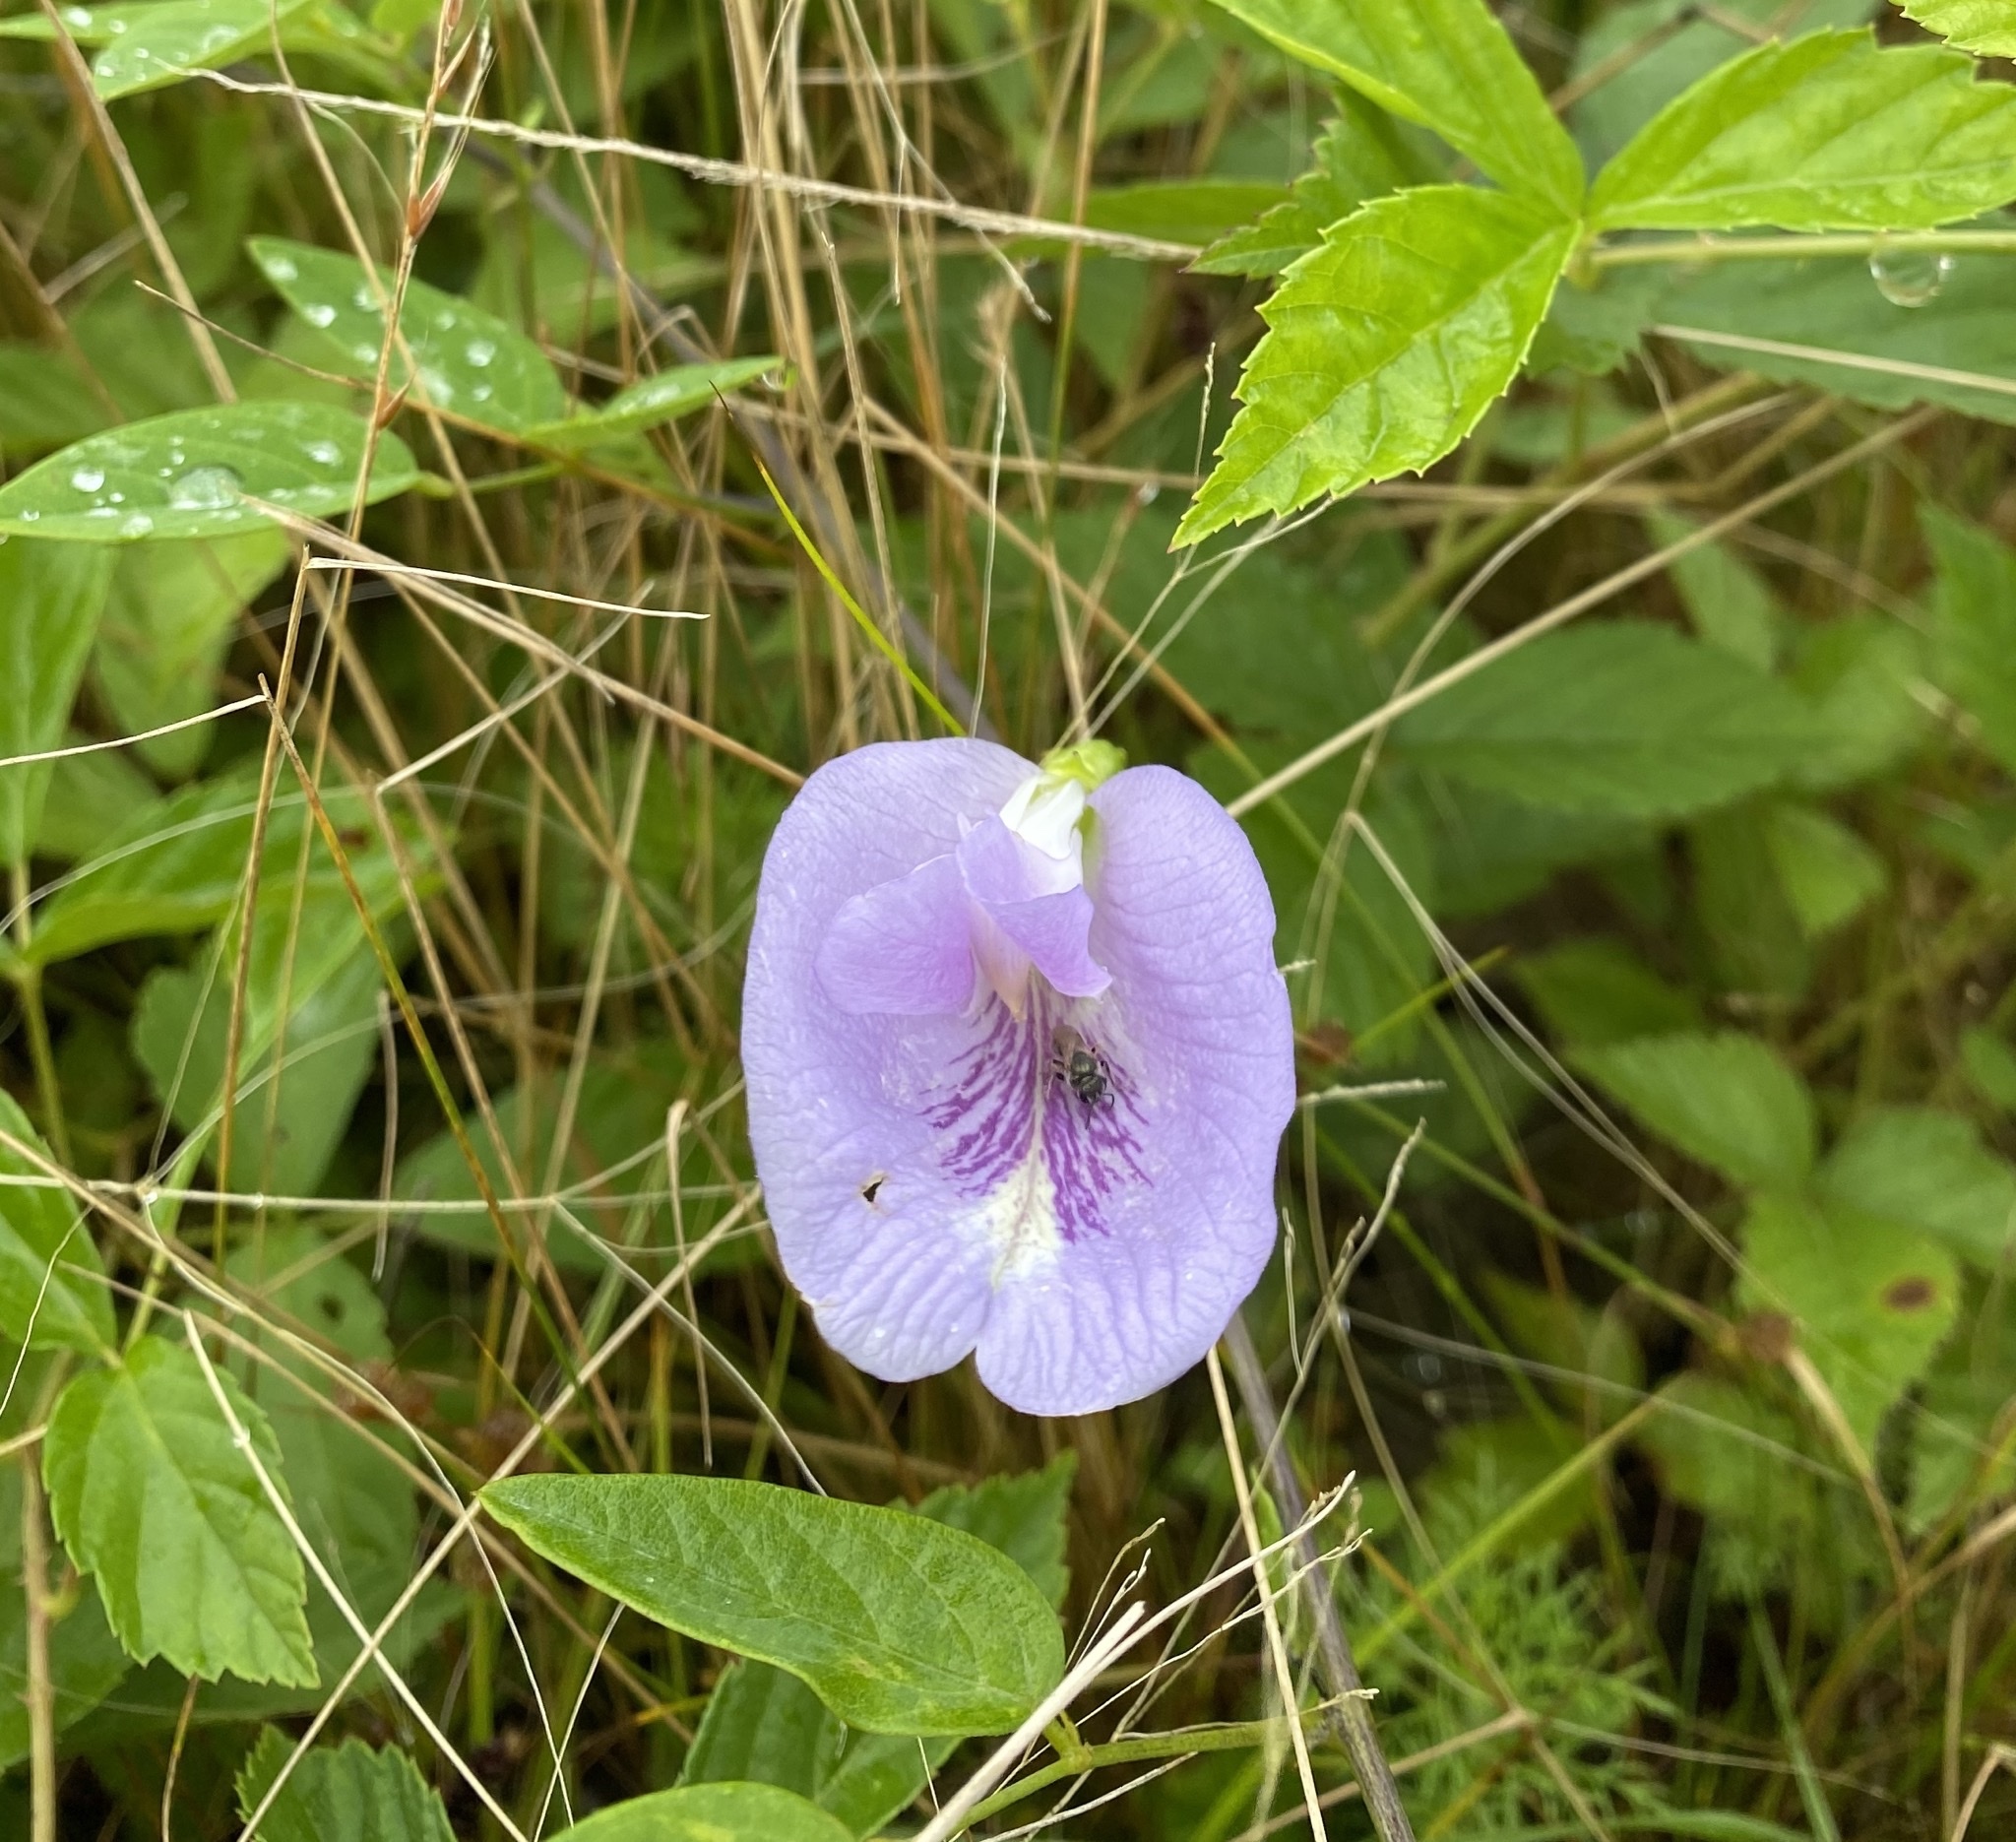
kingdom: Plantae
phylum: Tracheophyta
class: Magnoliopsida
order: Fabales
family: Fabaceae
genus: Clitoria
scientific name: Clitoria mariana
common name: Butterfly-pea
